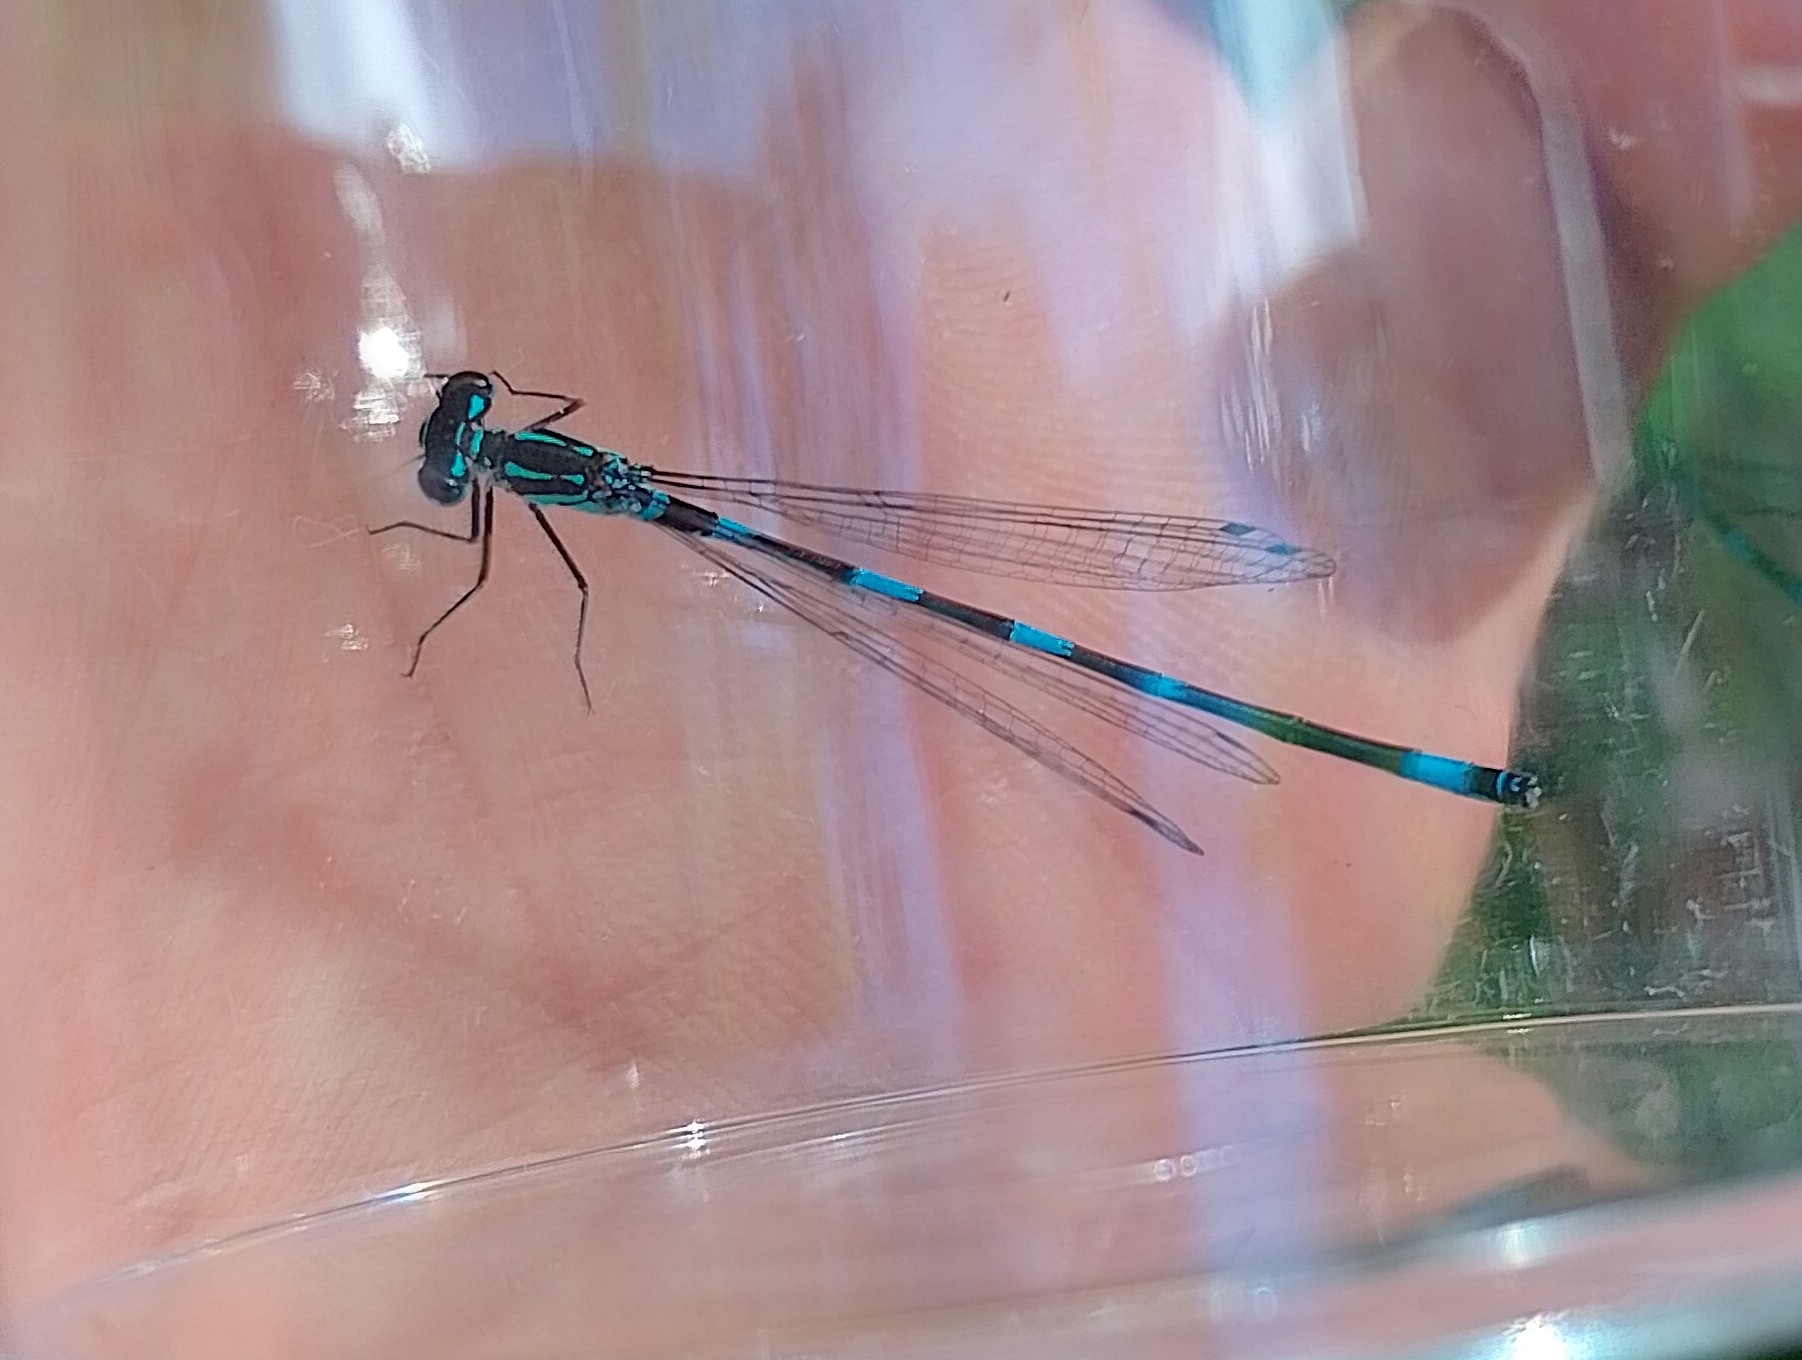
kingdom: Animalia
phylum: Arthropoda
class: Insecta
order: Odonata
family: Coenagrionidae
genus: Coenagrion
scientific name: Coenagrion pulchellum
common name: Variable bluet
